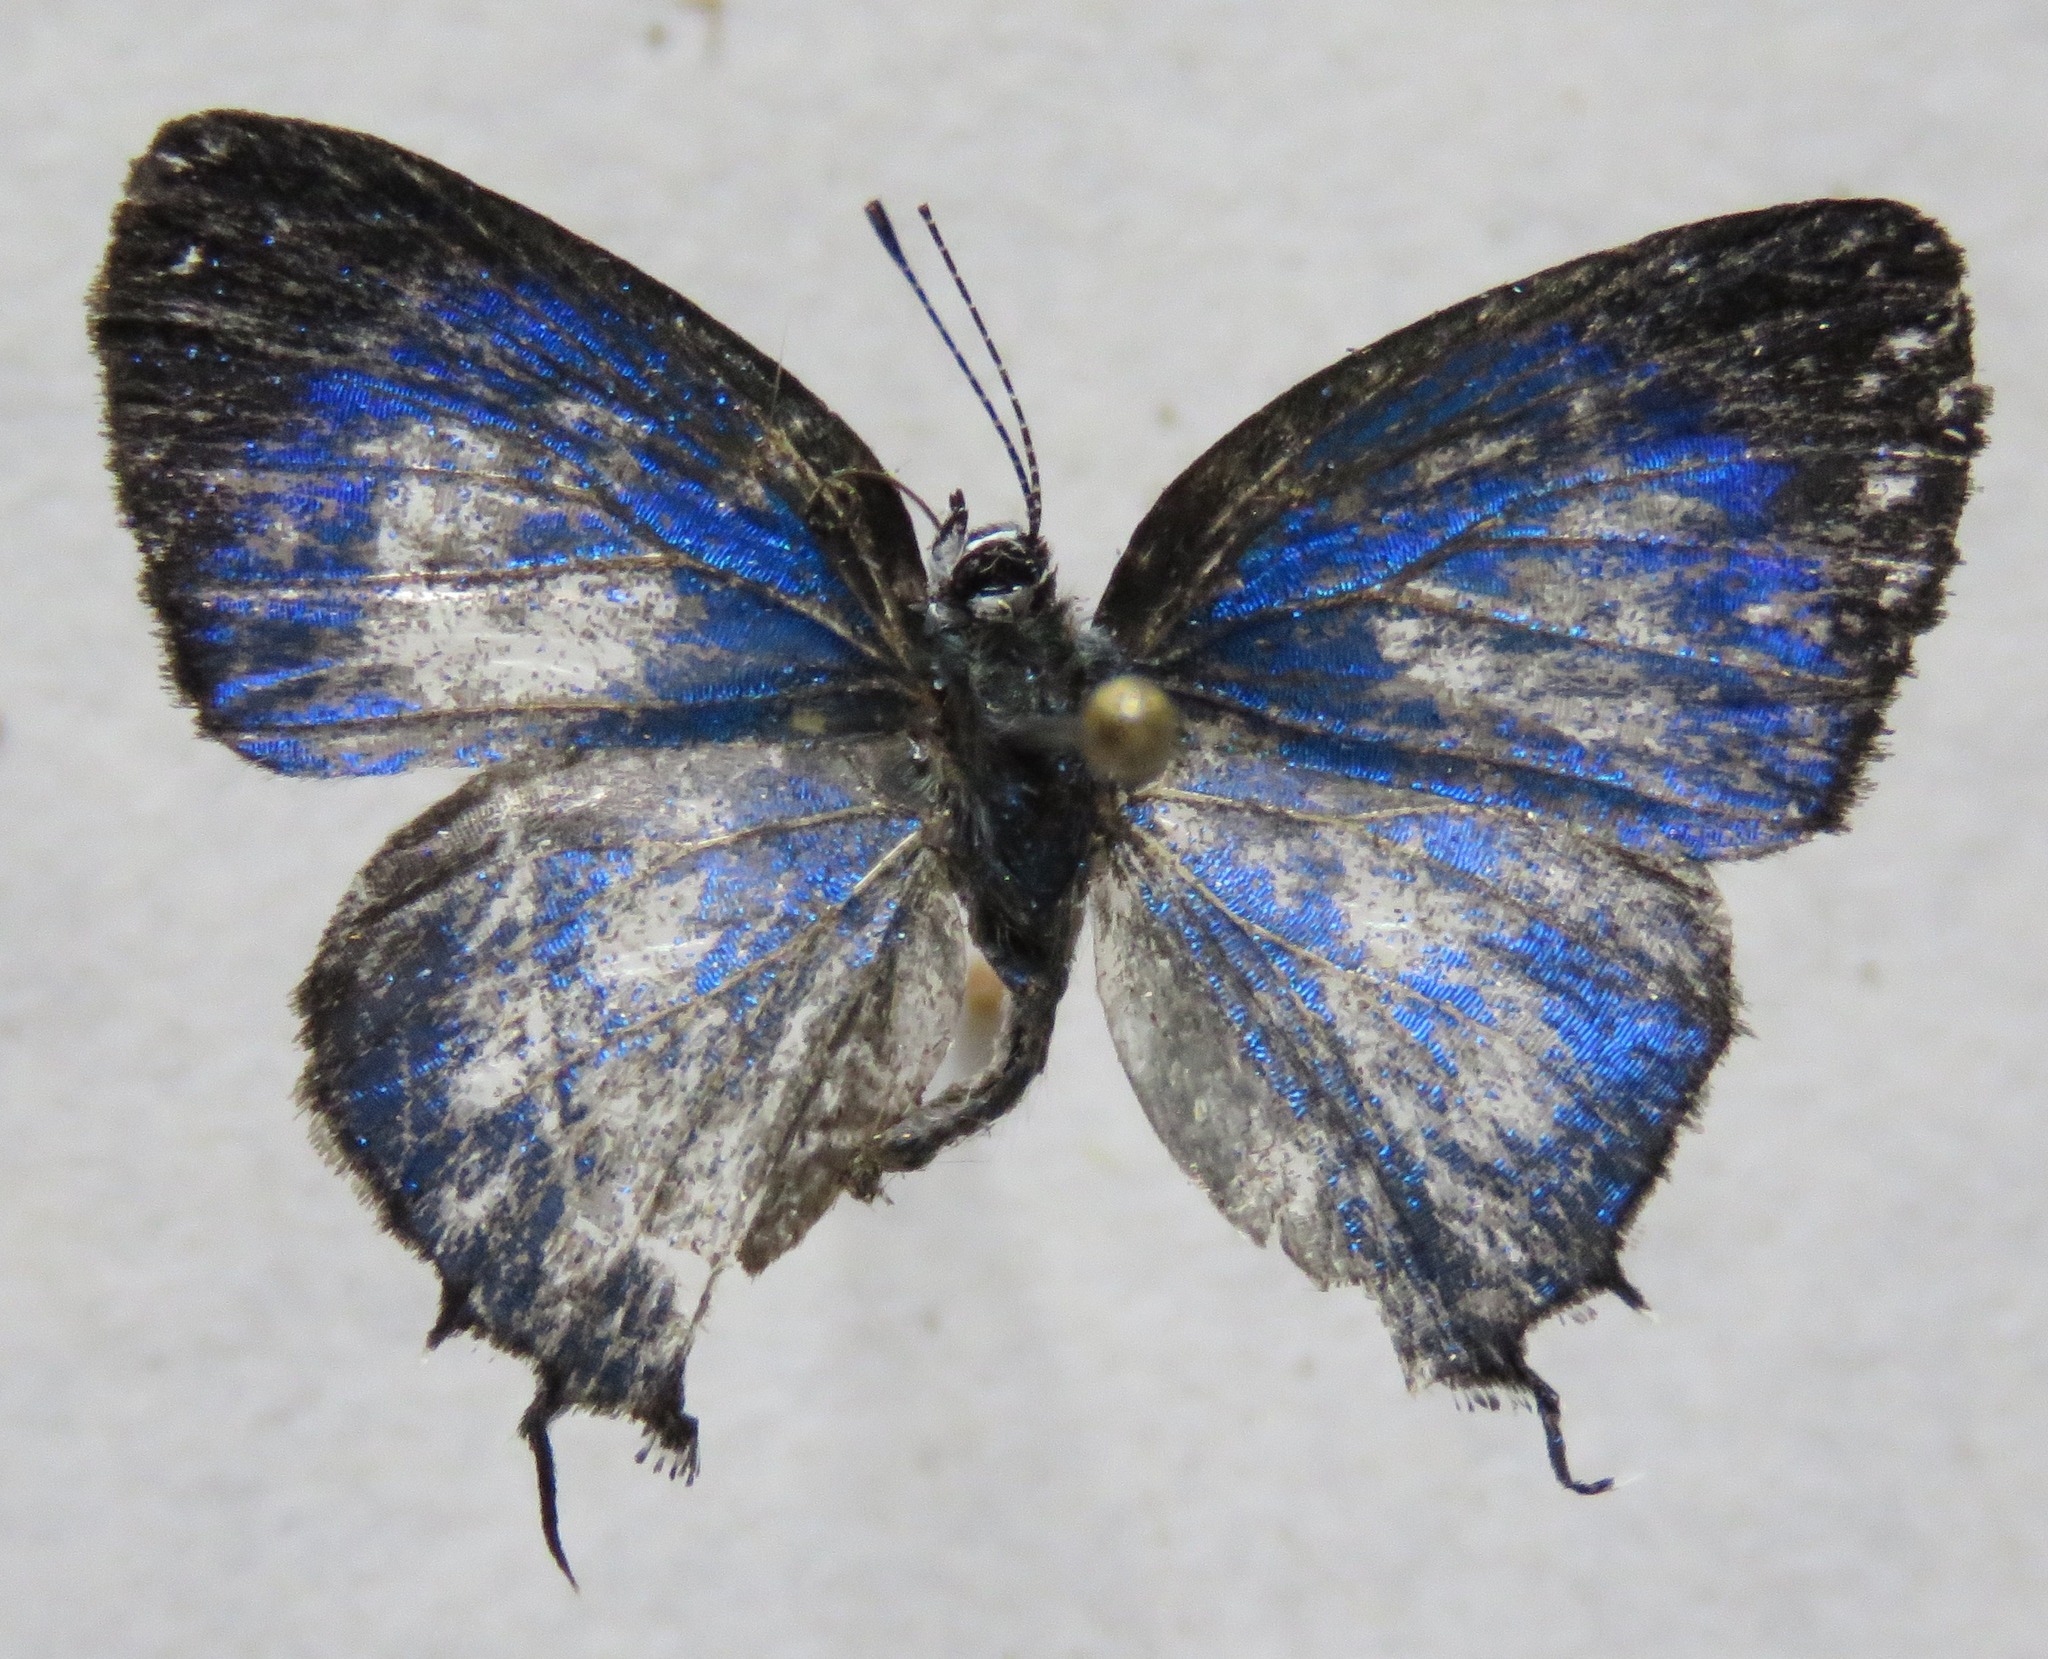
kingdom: Animalia
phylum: Arthropoda
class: Insecta
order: Lepidoptera
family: Lycaenidae
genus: Thestius
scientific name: Thestius
